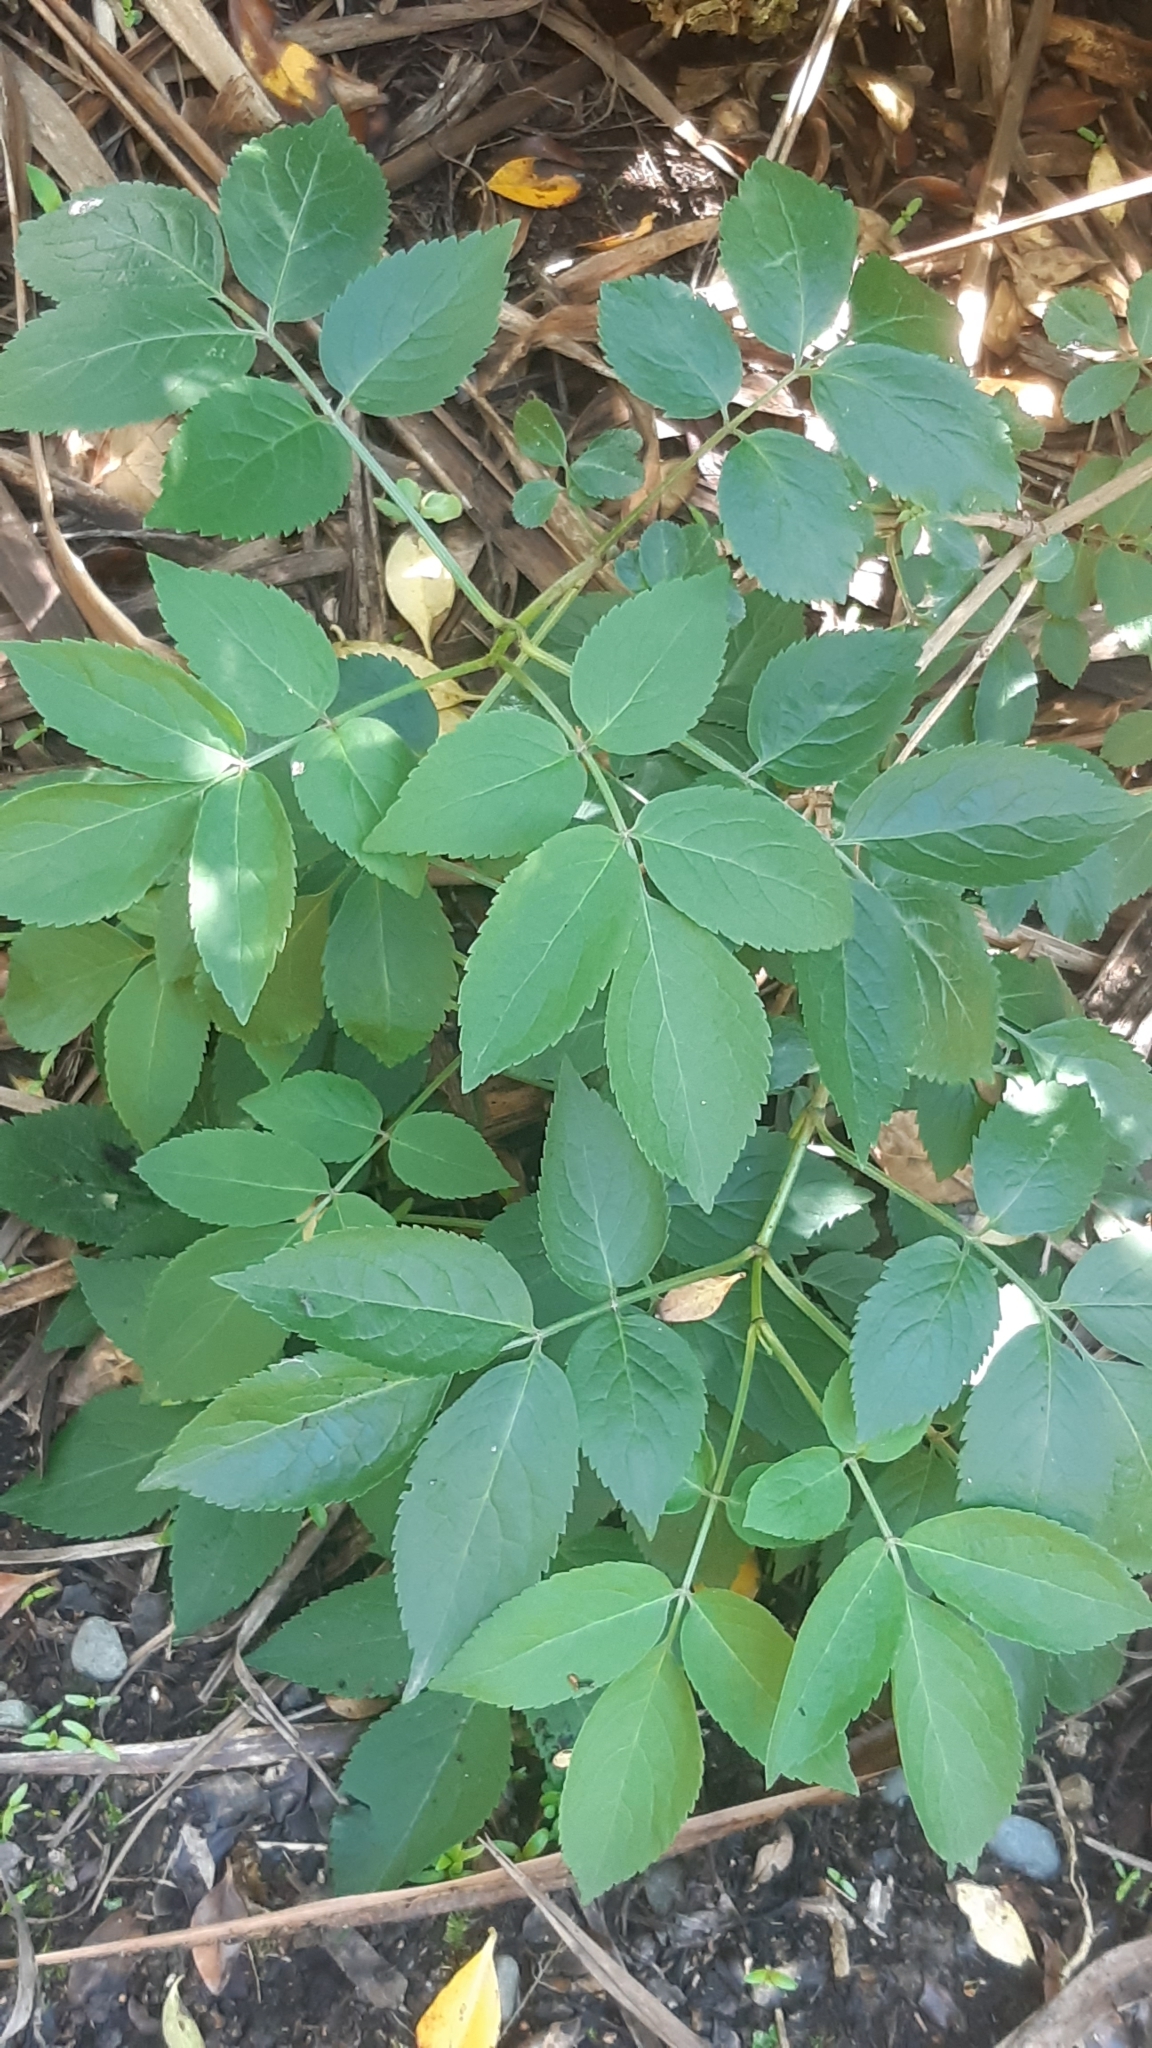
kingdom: Plantae
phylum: Tracheophyta
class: Magnoliopsida
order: Dipsacales
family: Viburnaceae
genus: Sambucus
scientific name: Sambucus nigra
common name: Elder
